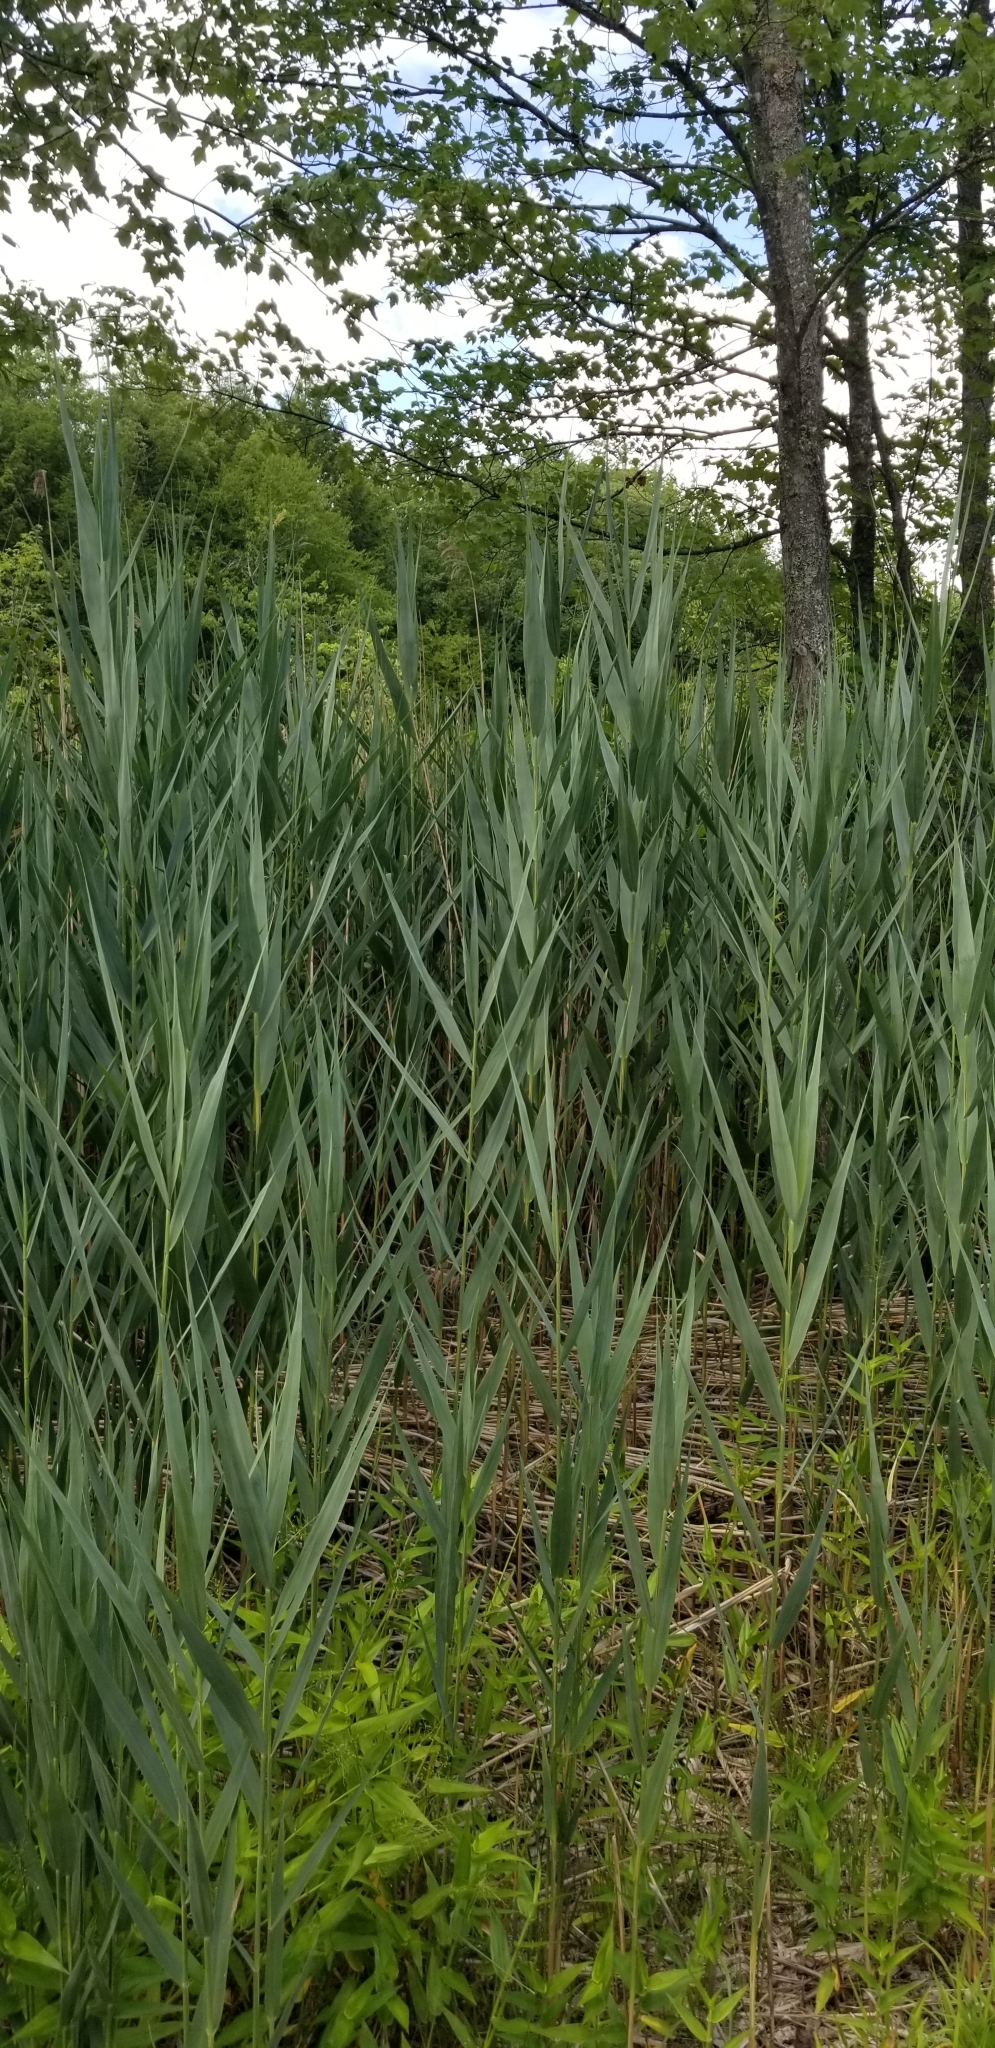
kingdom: Plantae
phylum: Tracheophyta
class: Liliopsida
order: Poales
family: Poaceae
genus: Phragmites
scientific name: Phragmites australis
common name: Common reed
